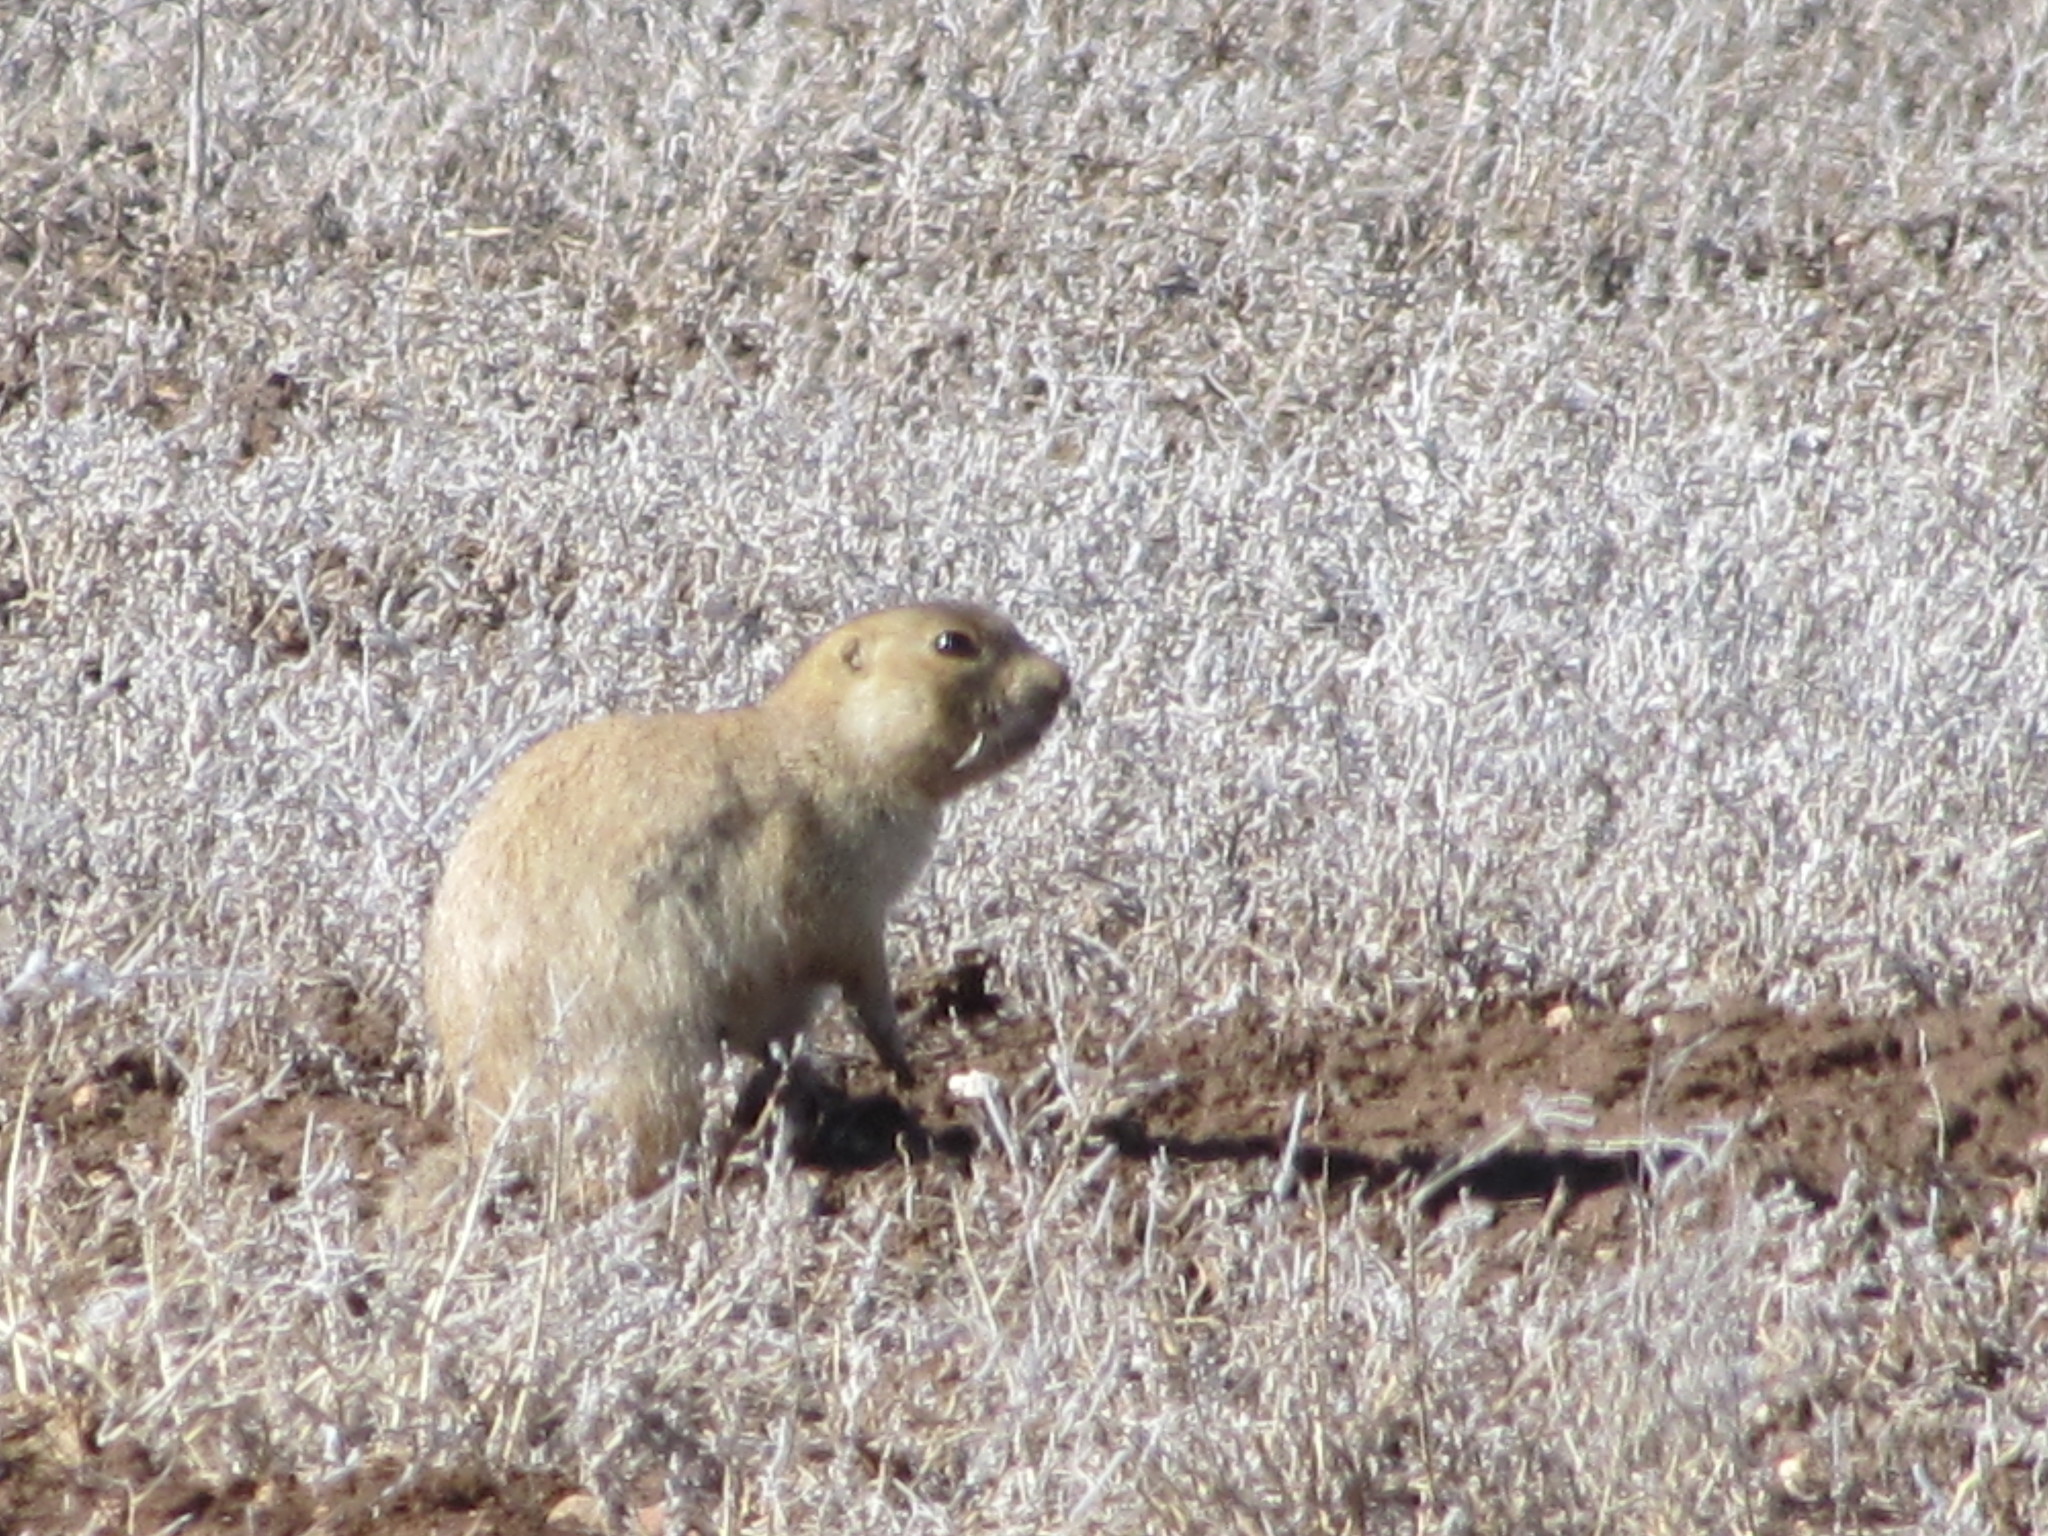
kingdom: Animalia
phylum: Chordata
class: Mammalia
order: Rodentia
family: Sciuridae
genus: Cynomys
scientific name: Cynomys gunnisoni
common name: Gunnison's prairie dog
